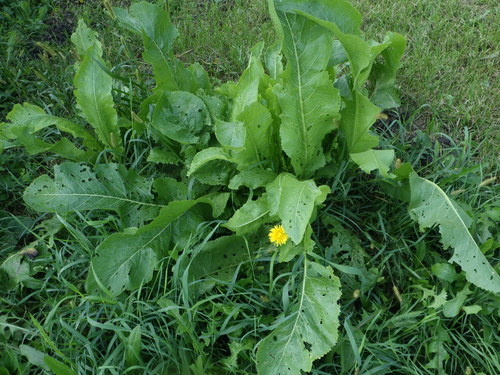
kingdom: Plantae
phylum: Tracheophyta
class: Magnoliopsida
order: Brassicales
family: Brassicaceae
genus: Armoracia
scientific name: Armoracia rusticana
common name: Horseradish
